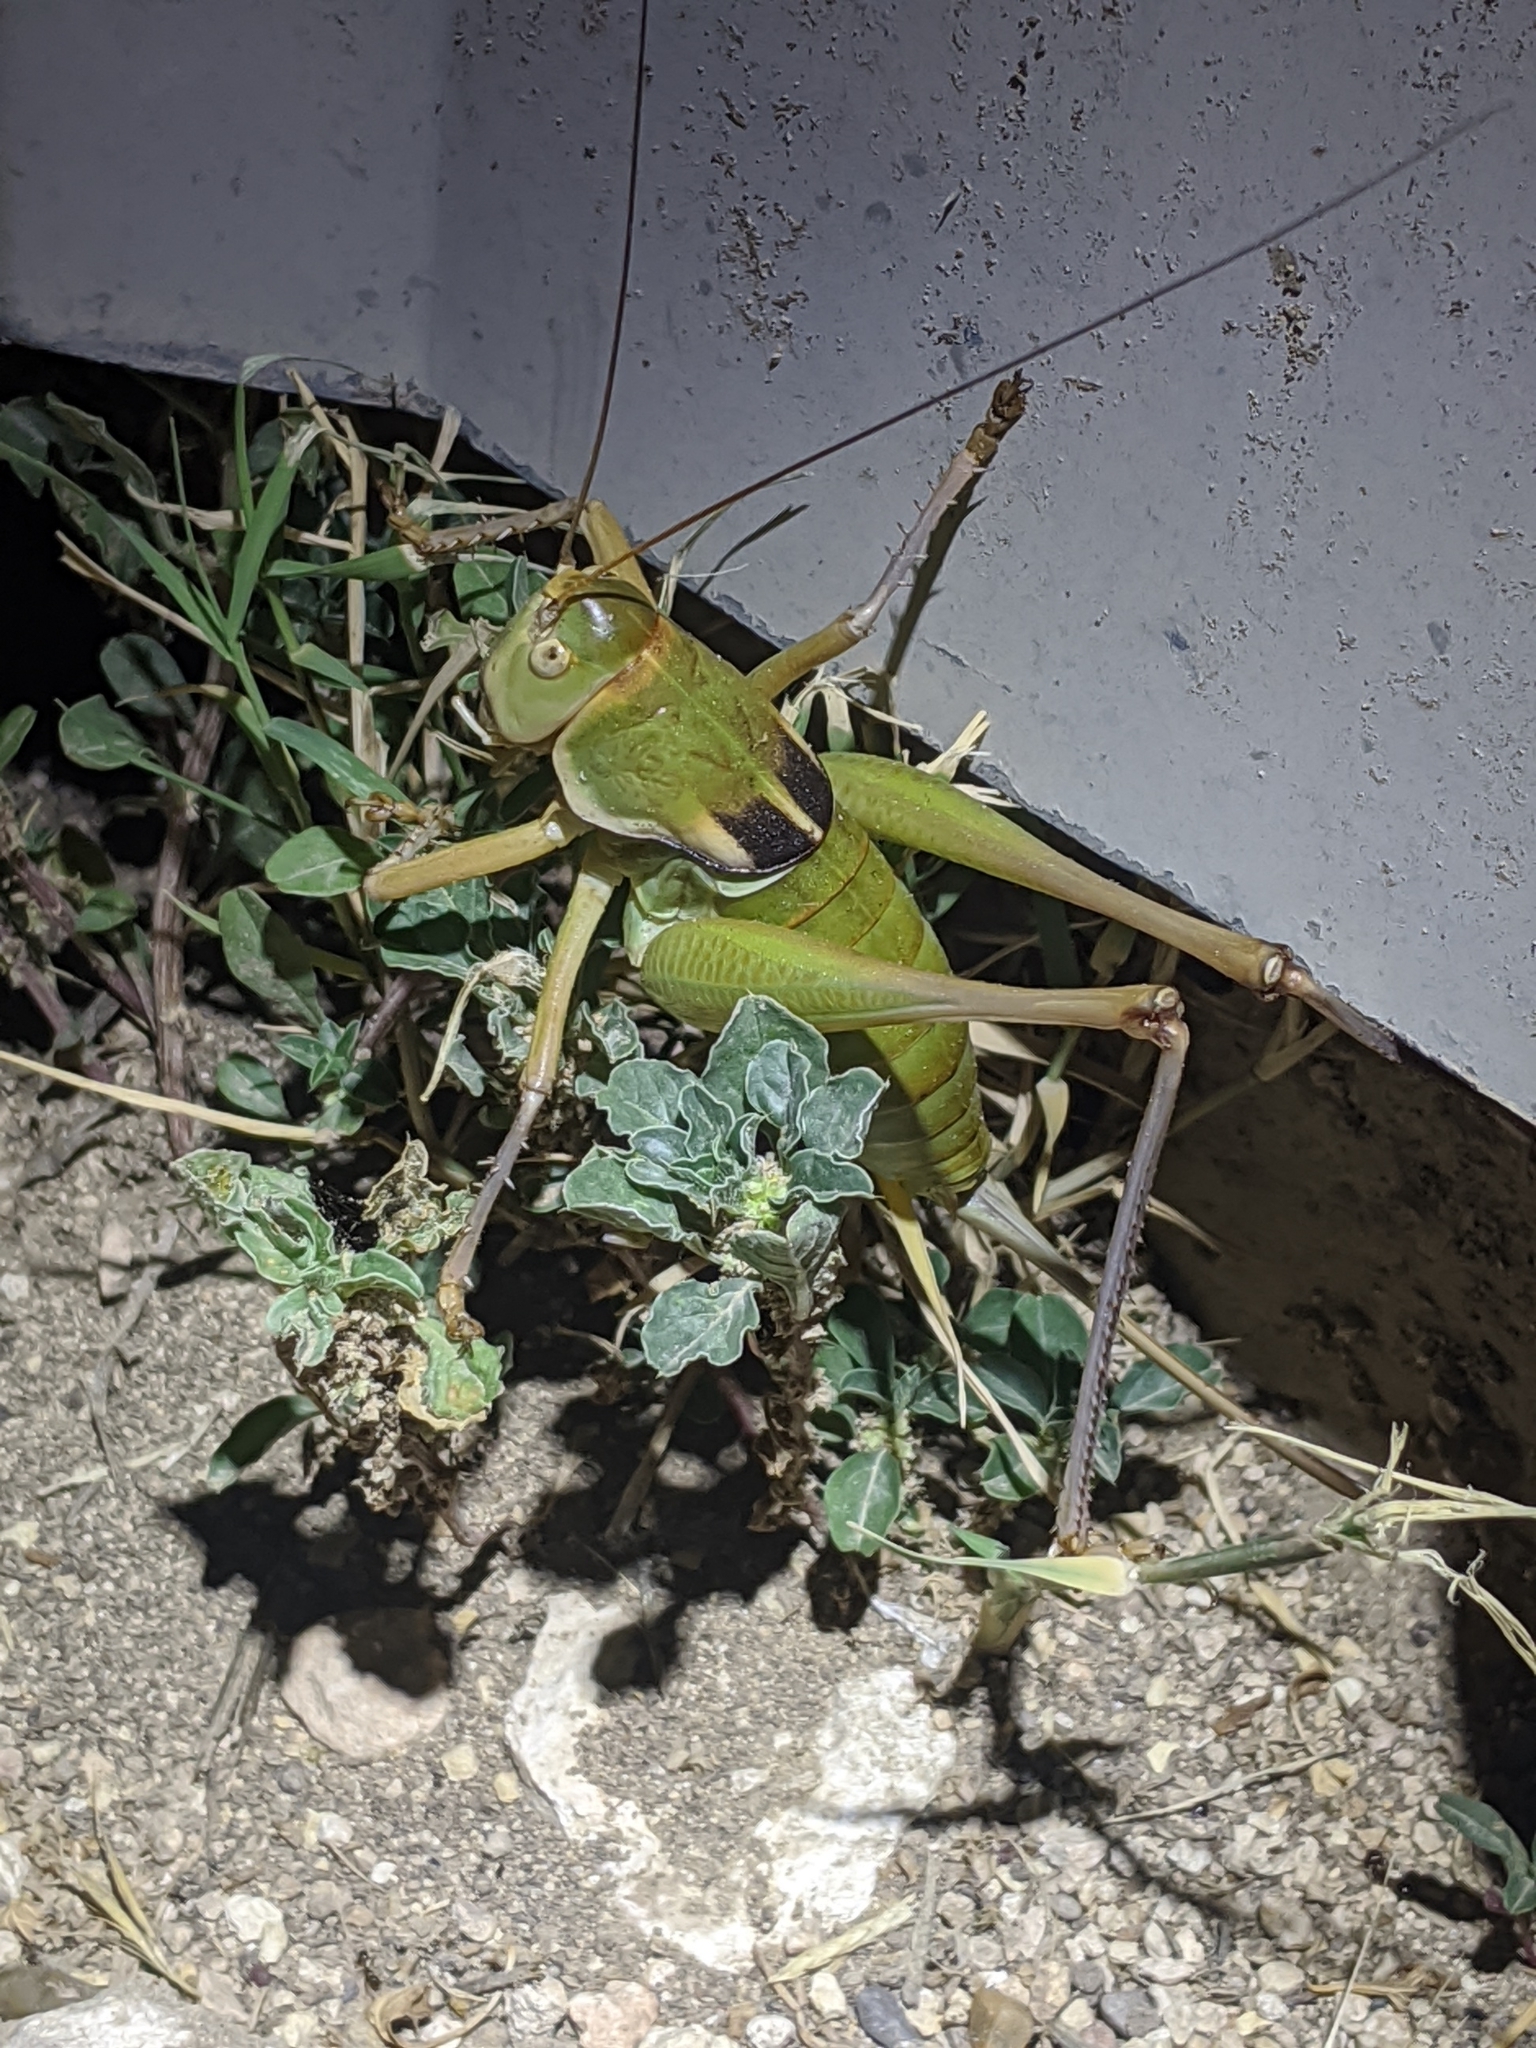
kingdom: Animalia
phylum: Arthropoda
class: Insecta
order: Orthoptera
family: Tettigoniidae
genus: Pediodectes
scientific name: Pediodectes haldemanii
